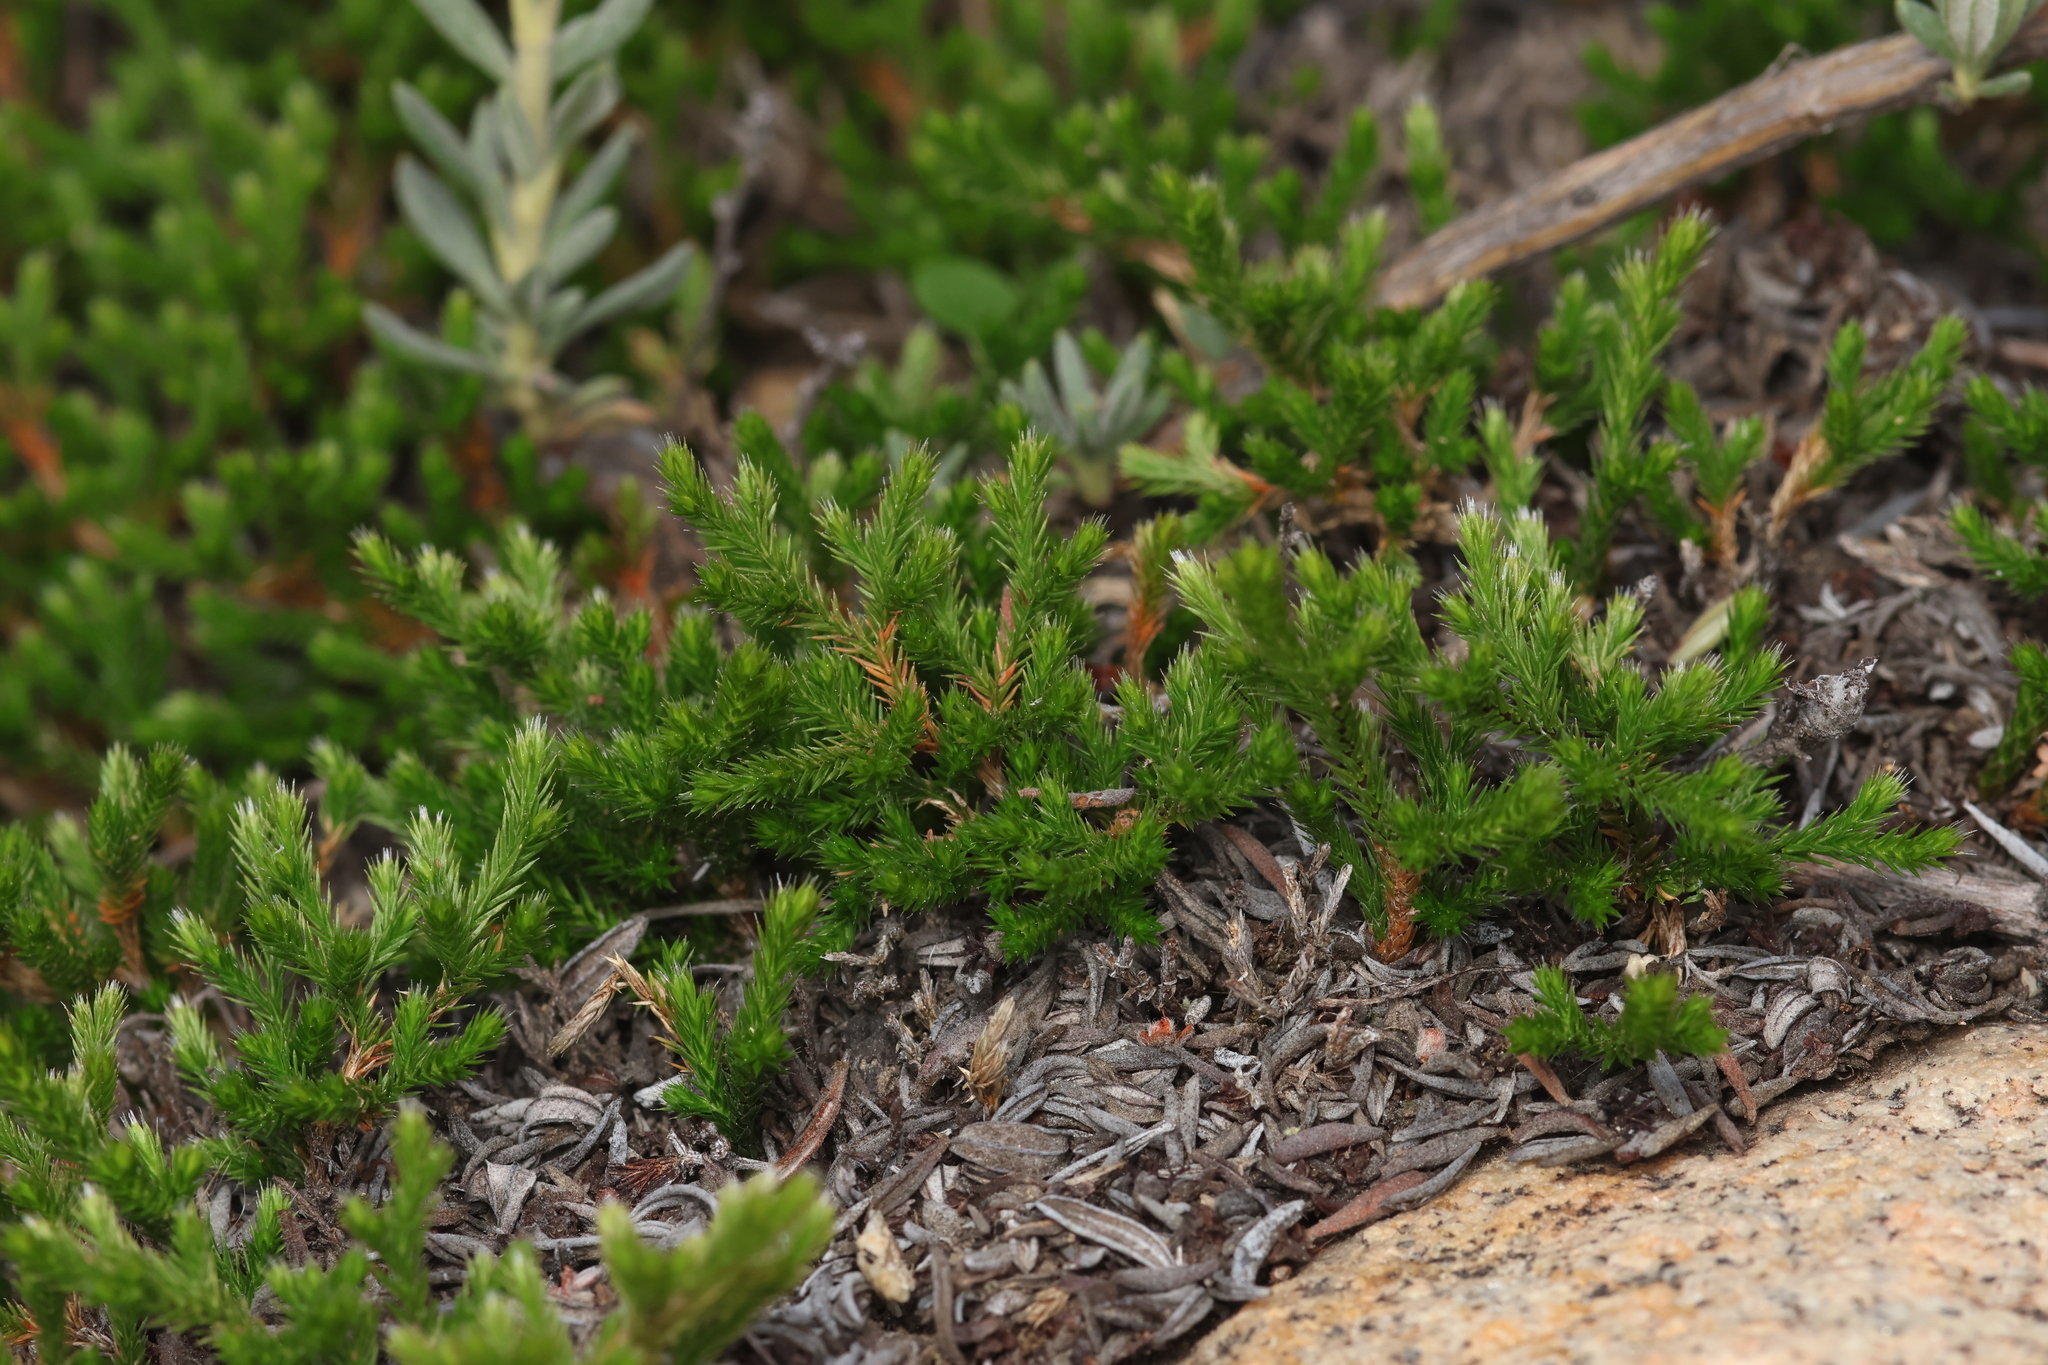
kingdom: Plantae
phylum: Tracheophyta
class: Lycopodiopsida
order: Selaginellales
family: Selaginellaceae
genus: Selaginella
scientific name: Selaginella bigelovii
